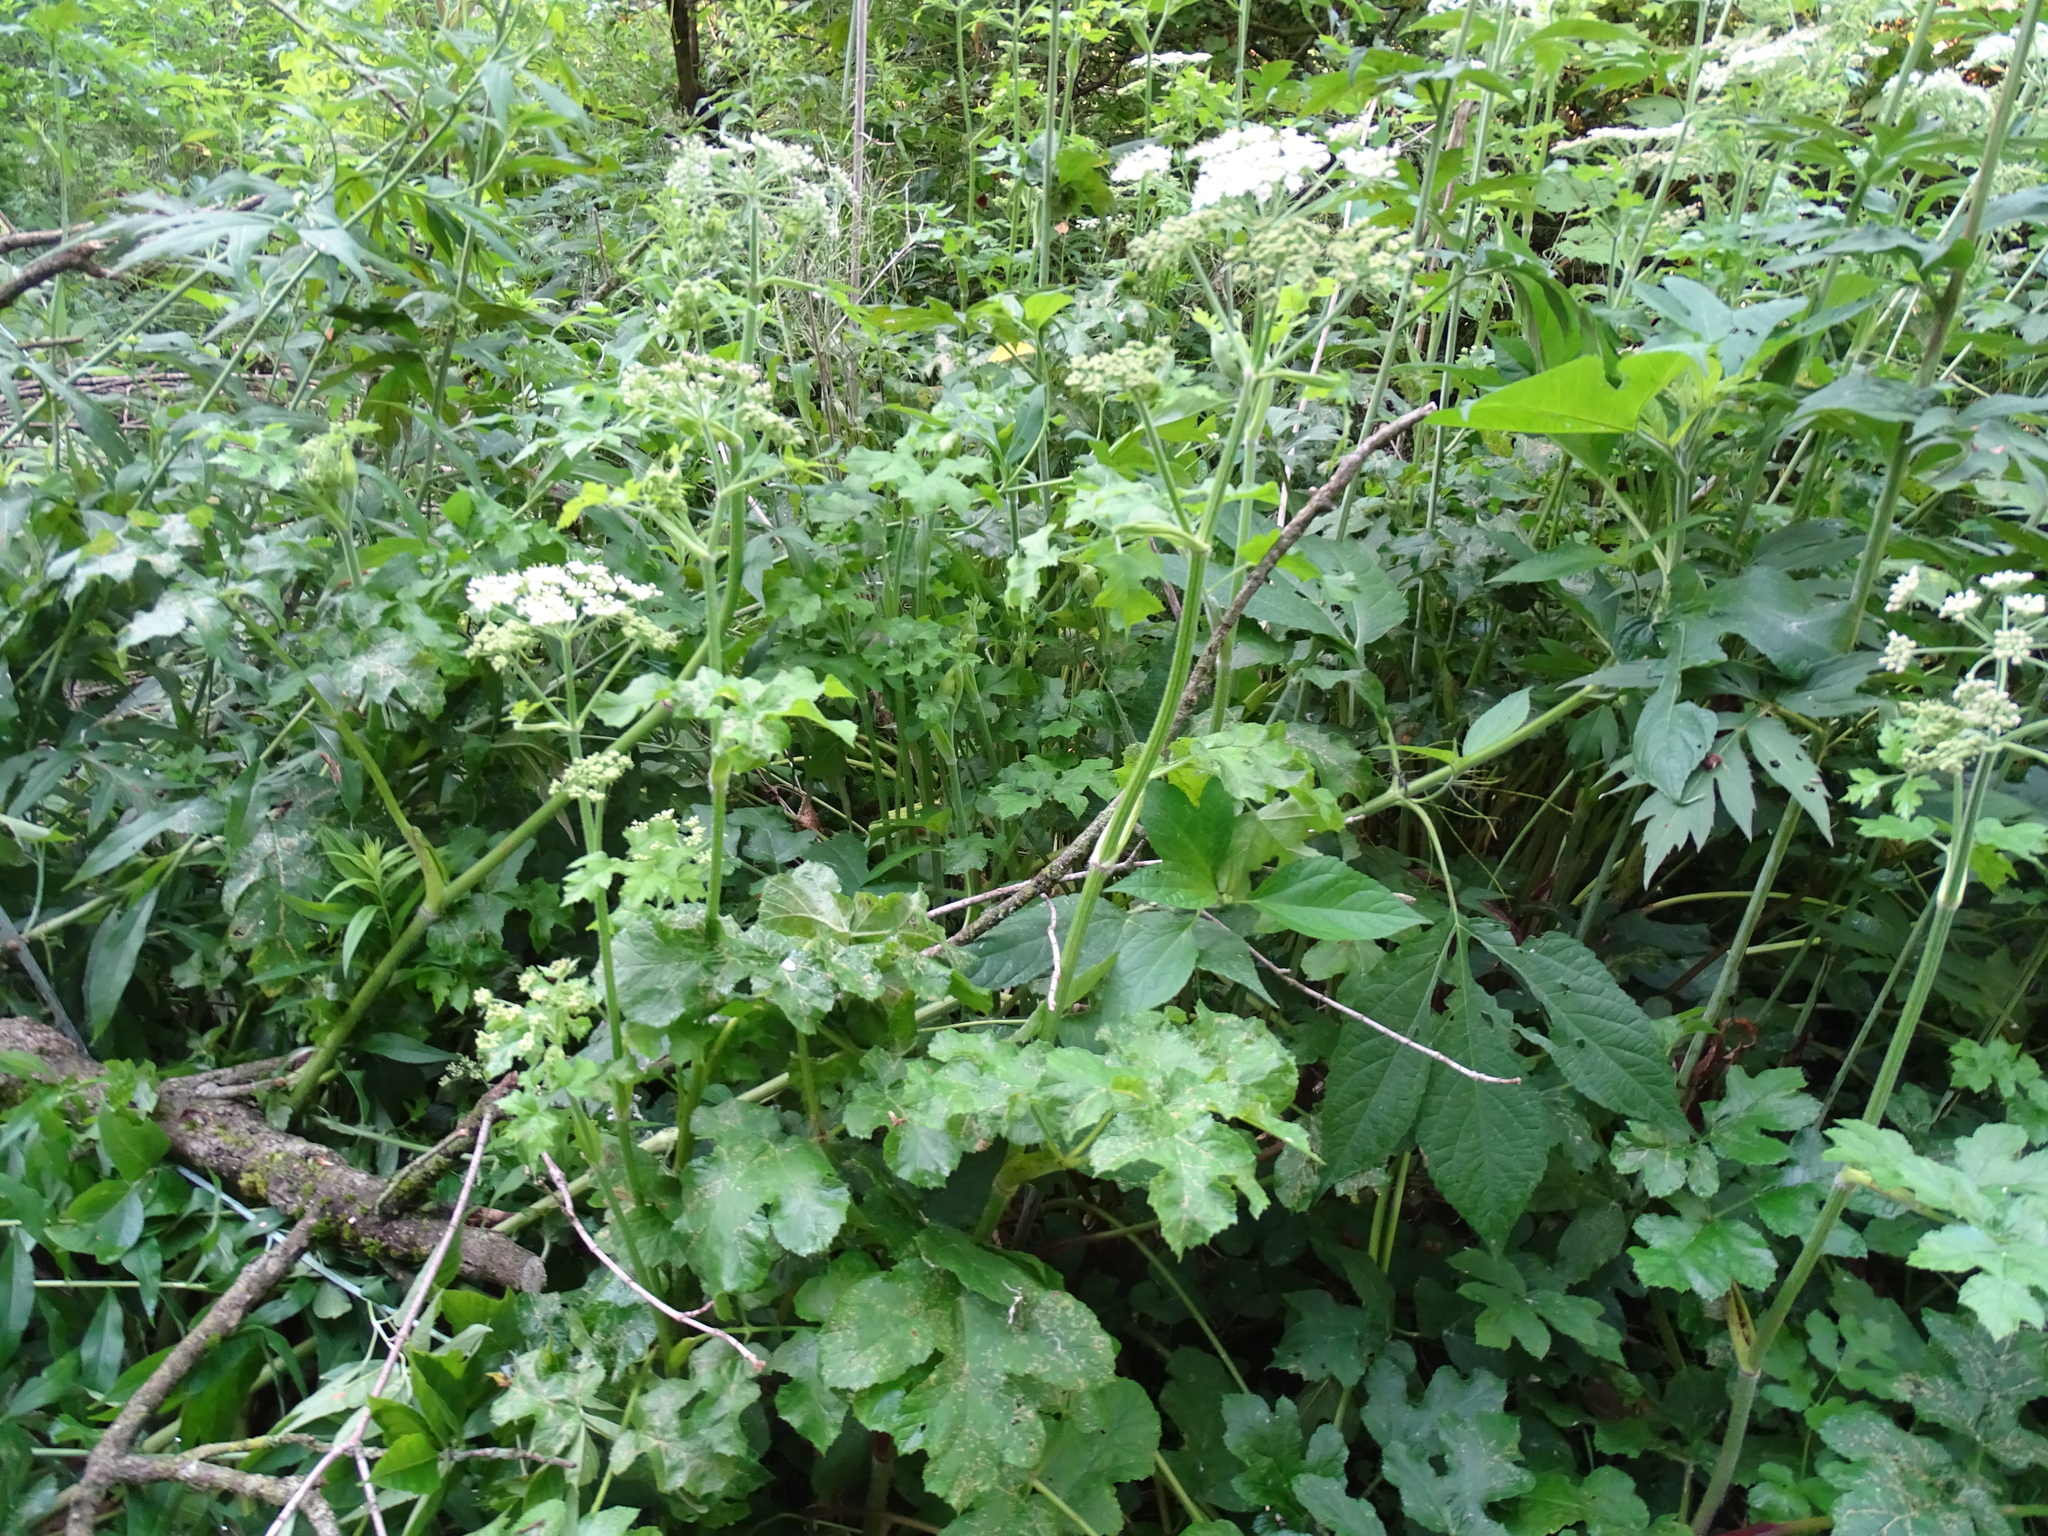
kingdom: Plantae
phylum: Tracheophyta
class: Magnoliopsida
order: Apiales
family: Apiaceae
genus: Heracleum
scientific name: Heracleum sphondylium
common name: Hogweed
